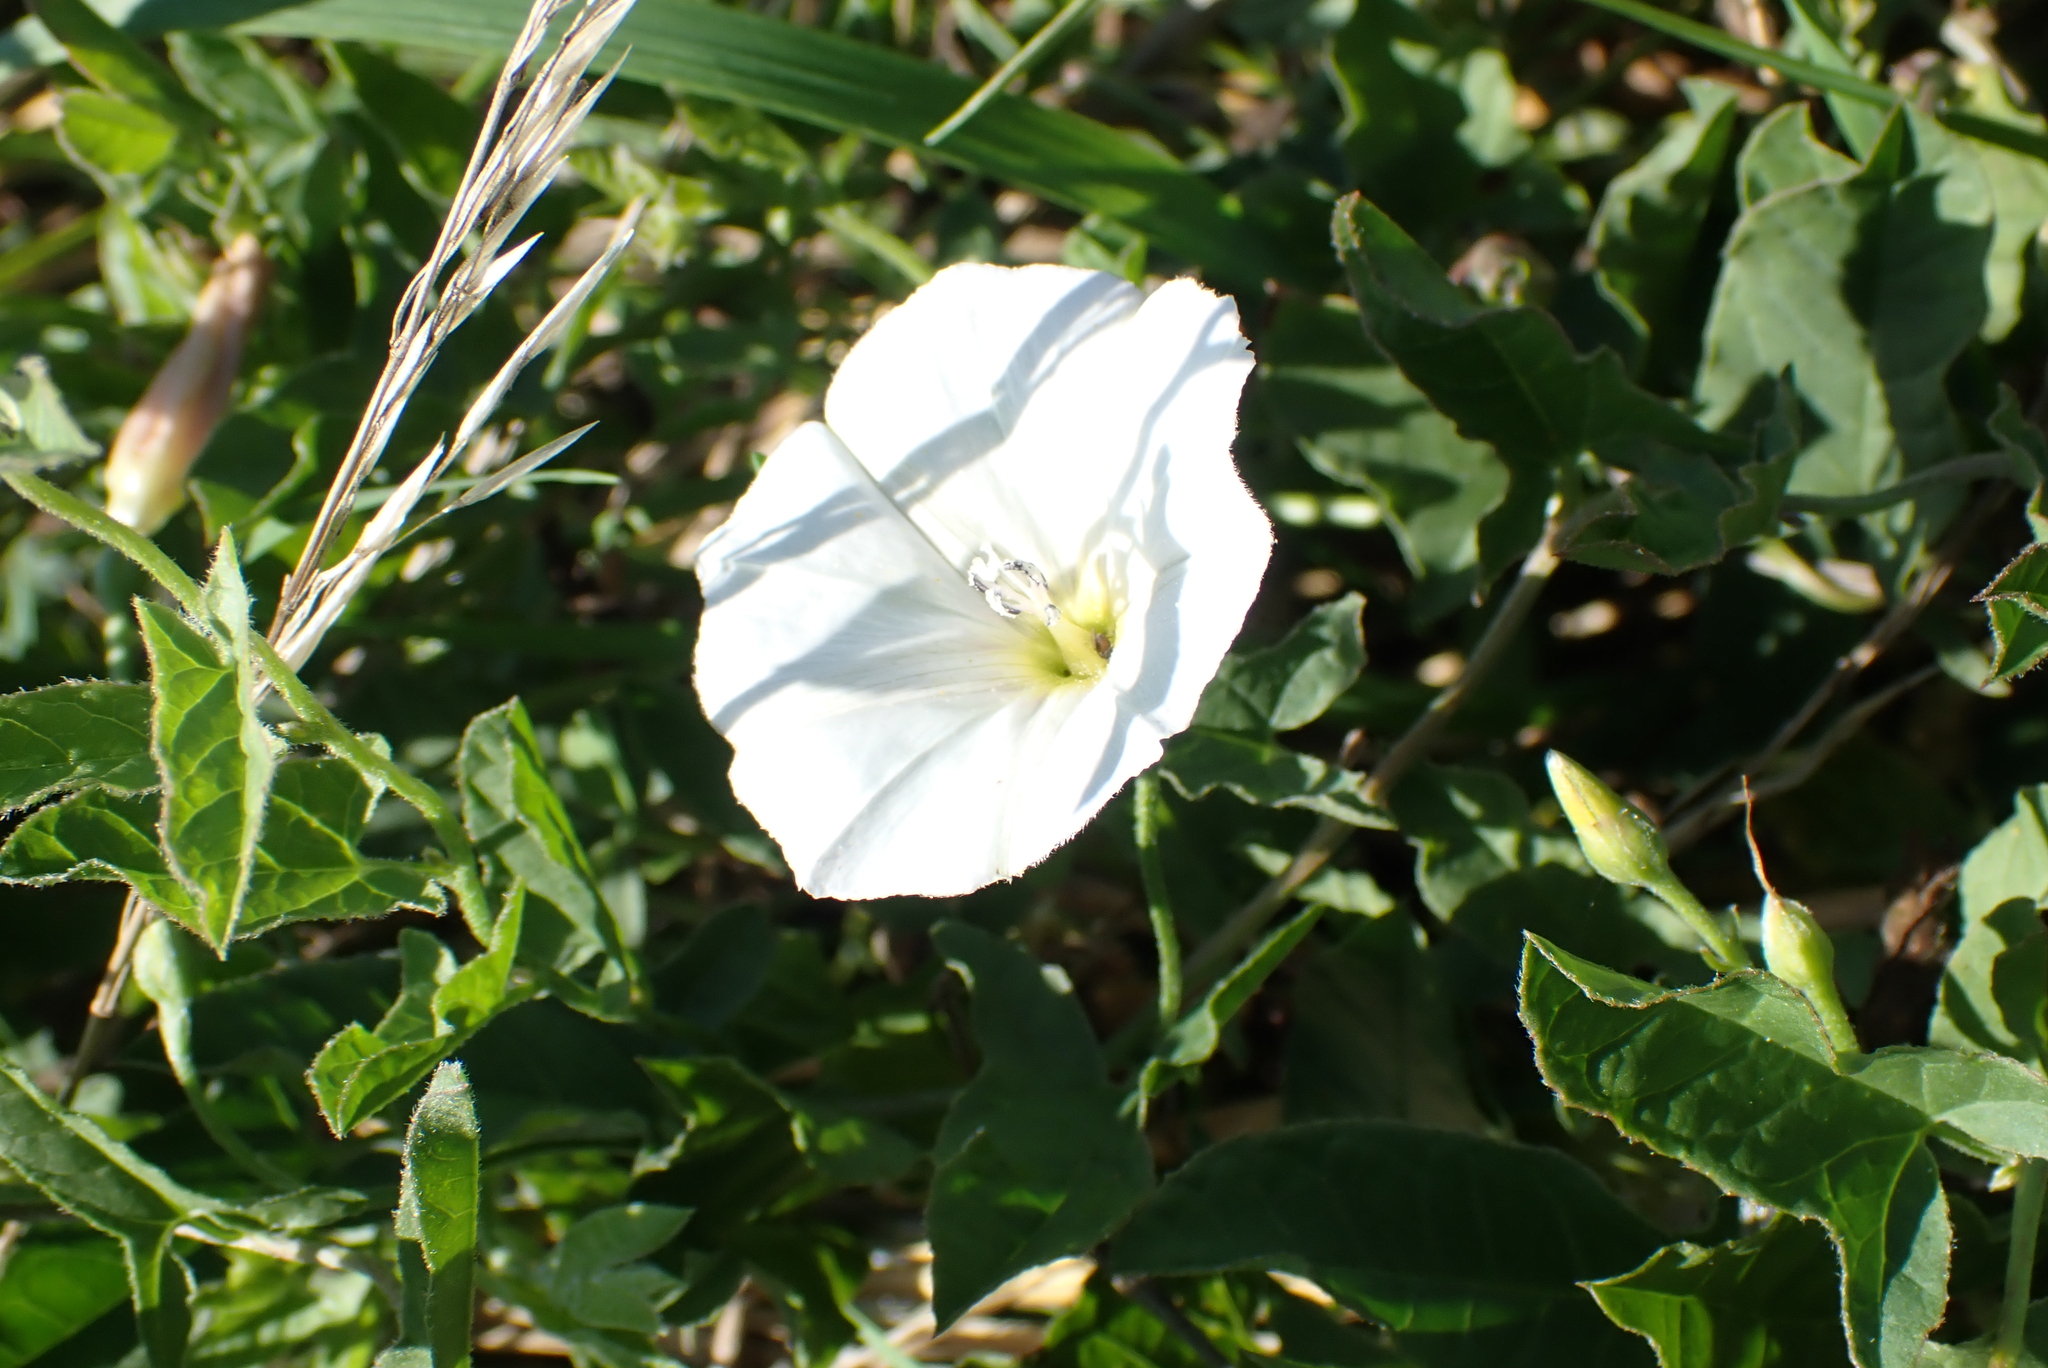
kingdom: Plantae
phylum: Tracheophyta
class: Magnoliopsida
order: Solanales
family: Convolvulaceae
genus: Convolvulus
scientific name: Convolvulus arvensis
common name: Field bindweed
